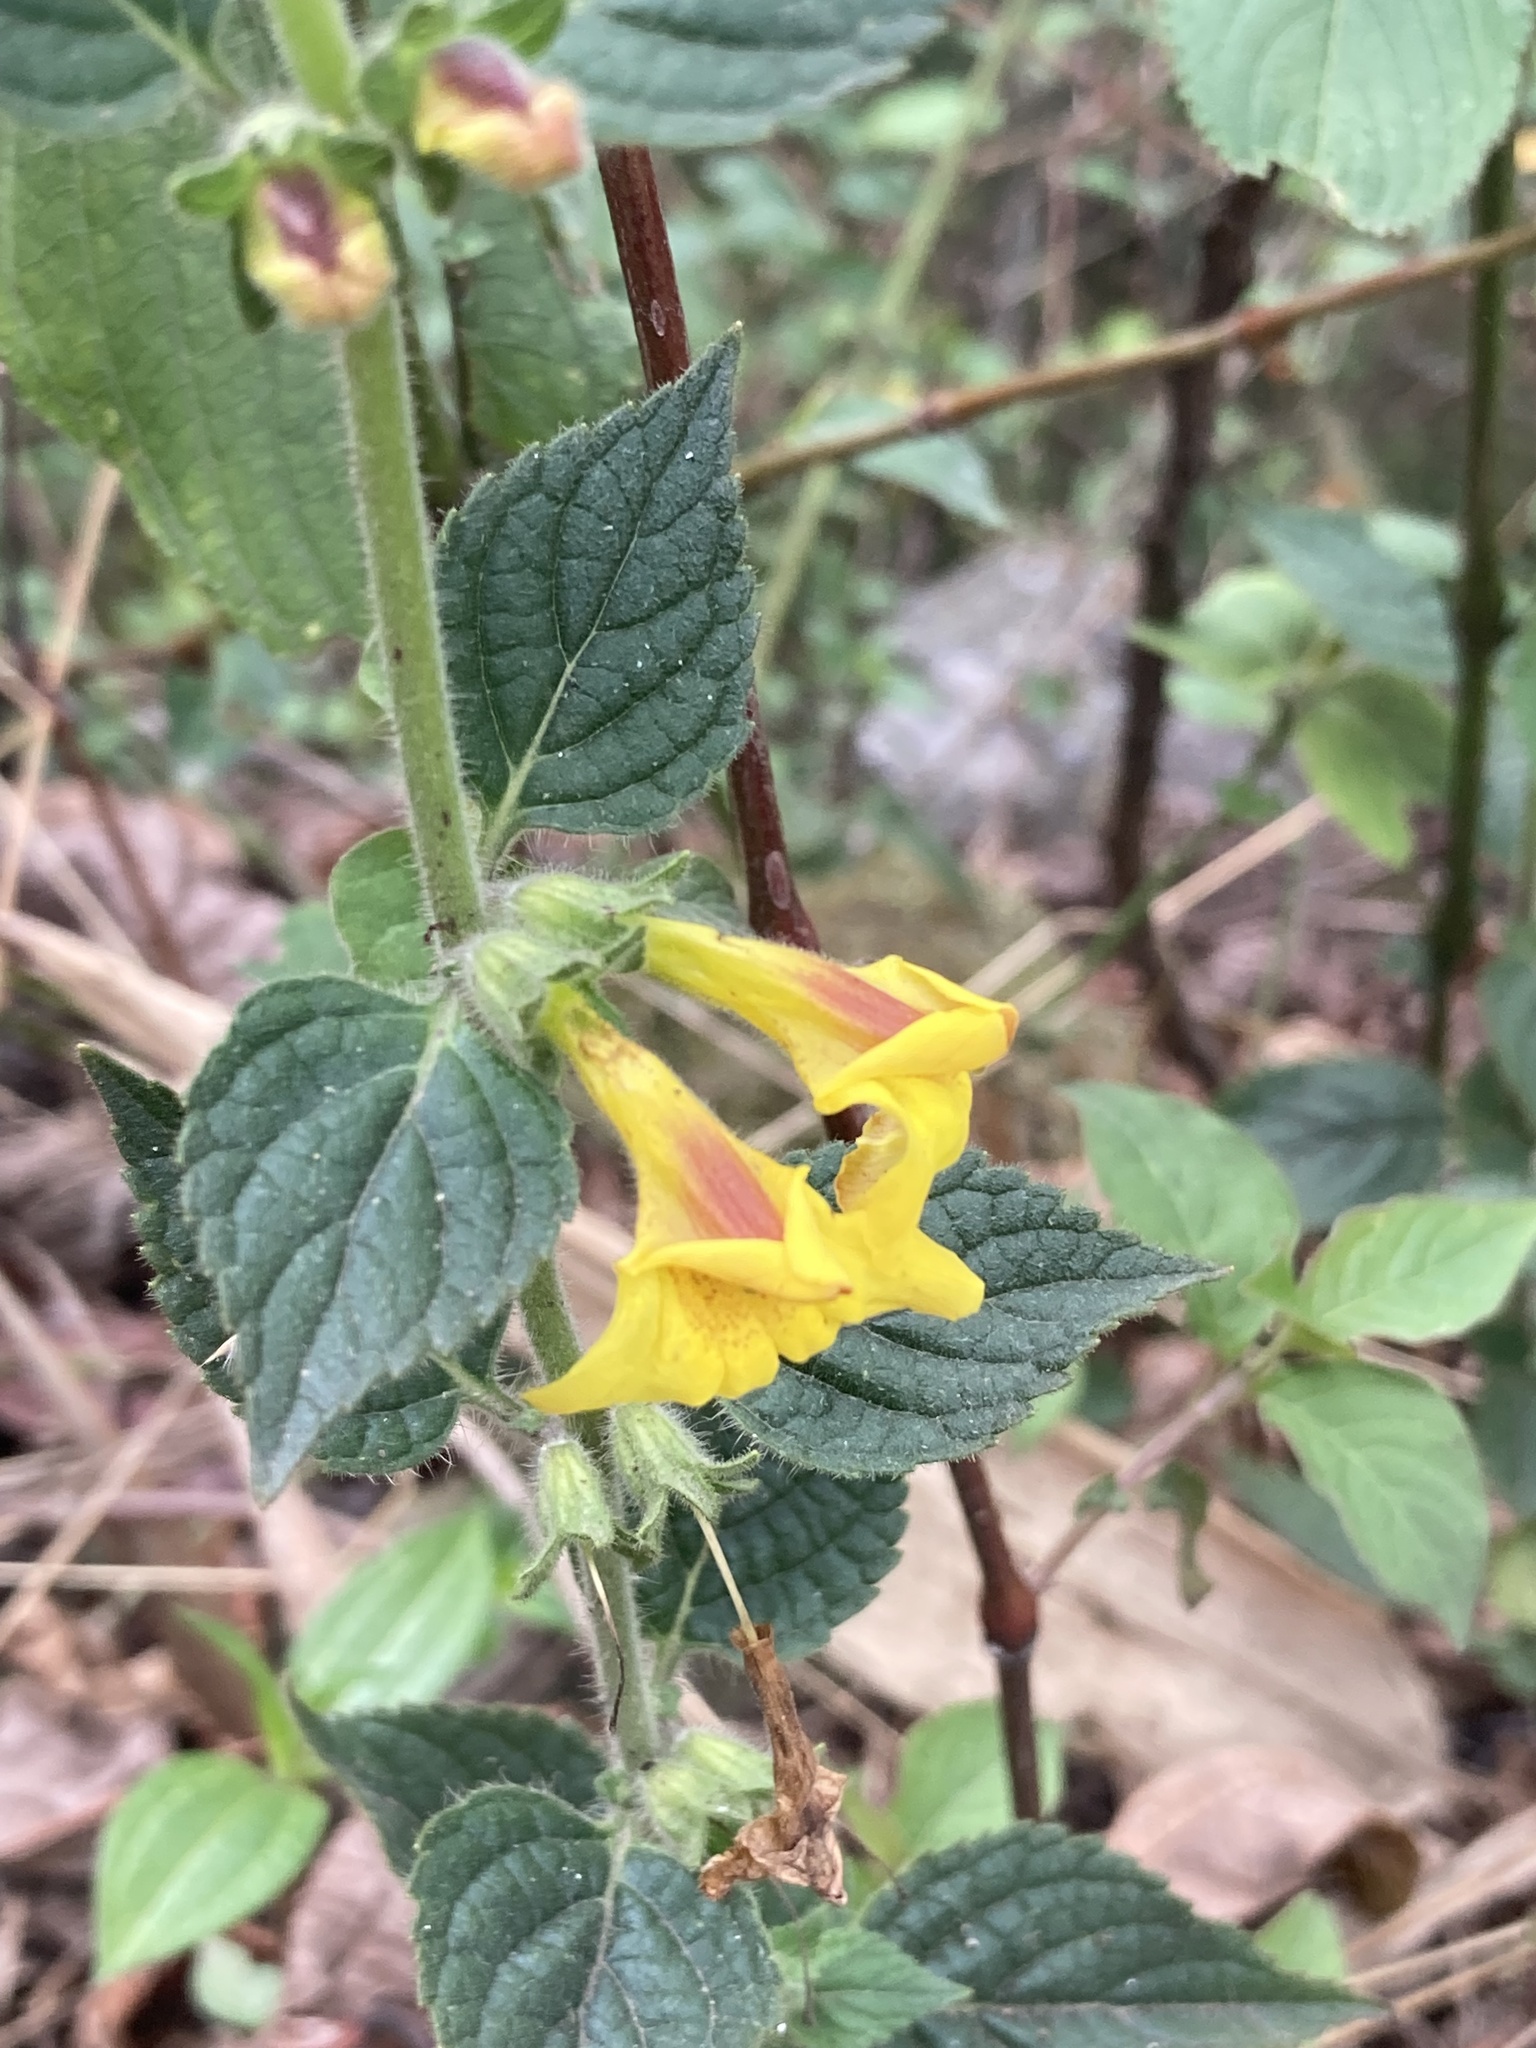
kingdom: Plantae
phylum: Tracheophyta
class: Magnoliopsida
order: Lamiales
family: Orobanchaceae
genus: Lindenbergia
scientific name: Lindenbergia grandiflora
